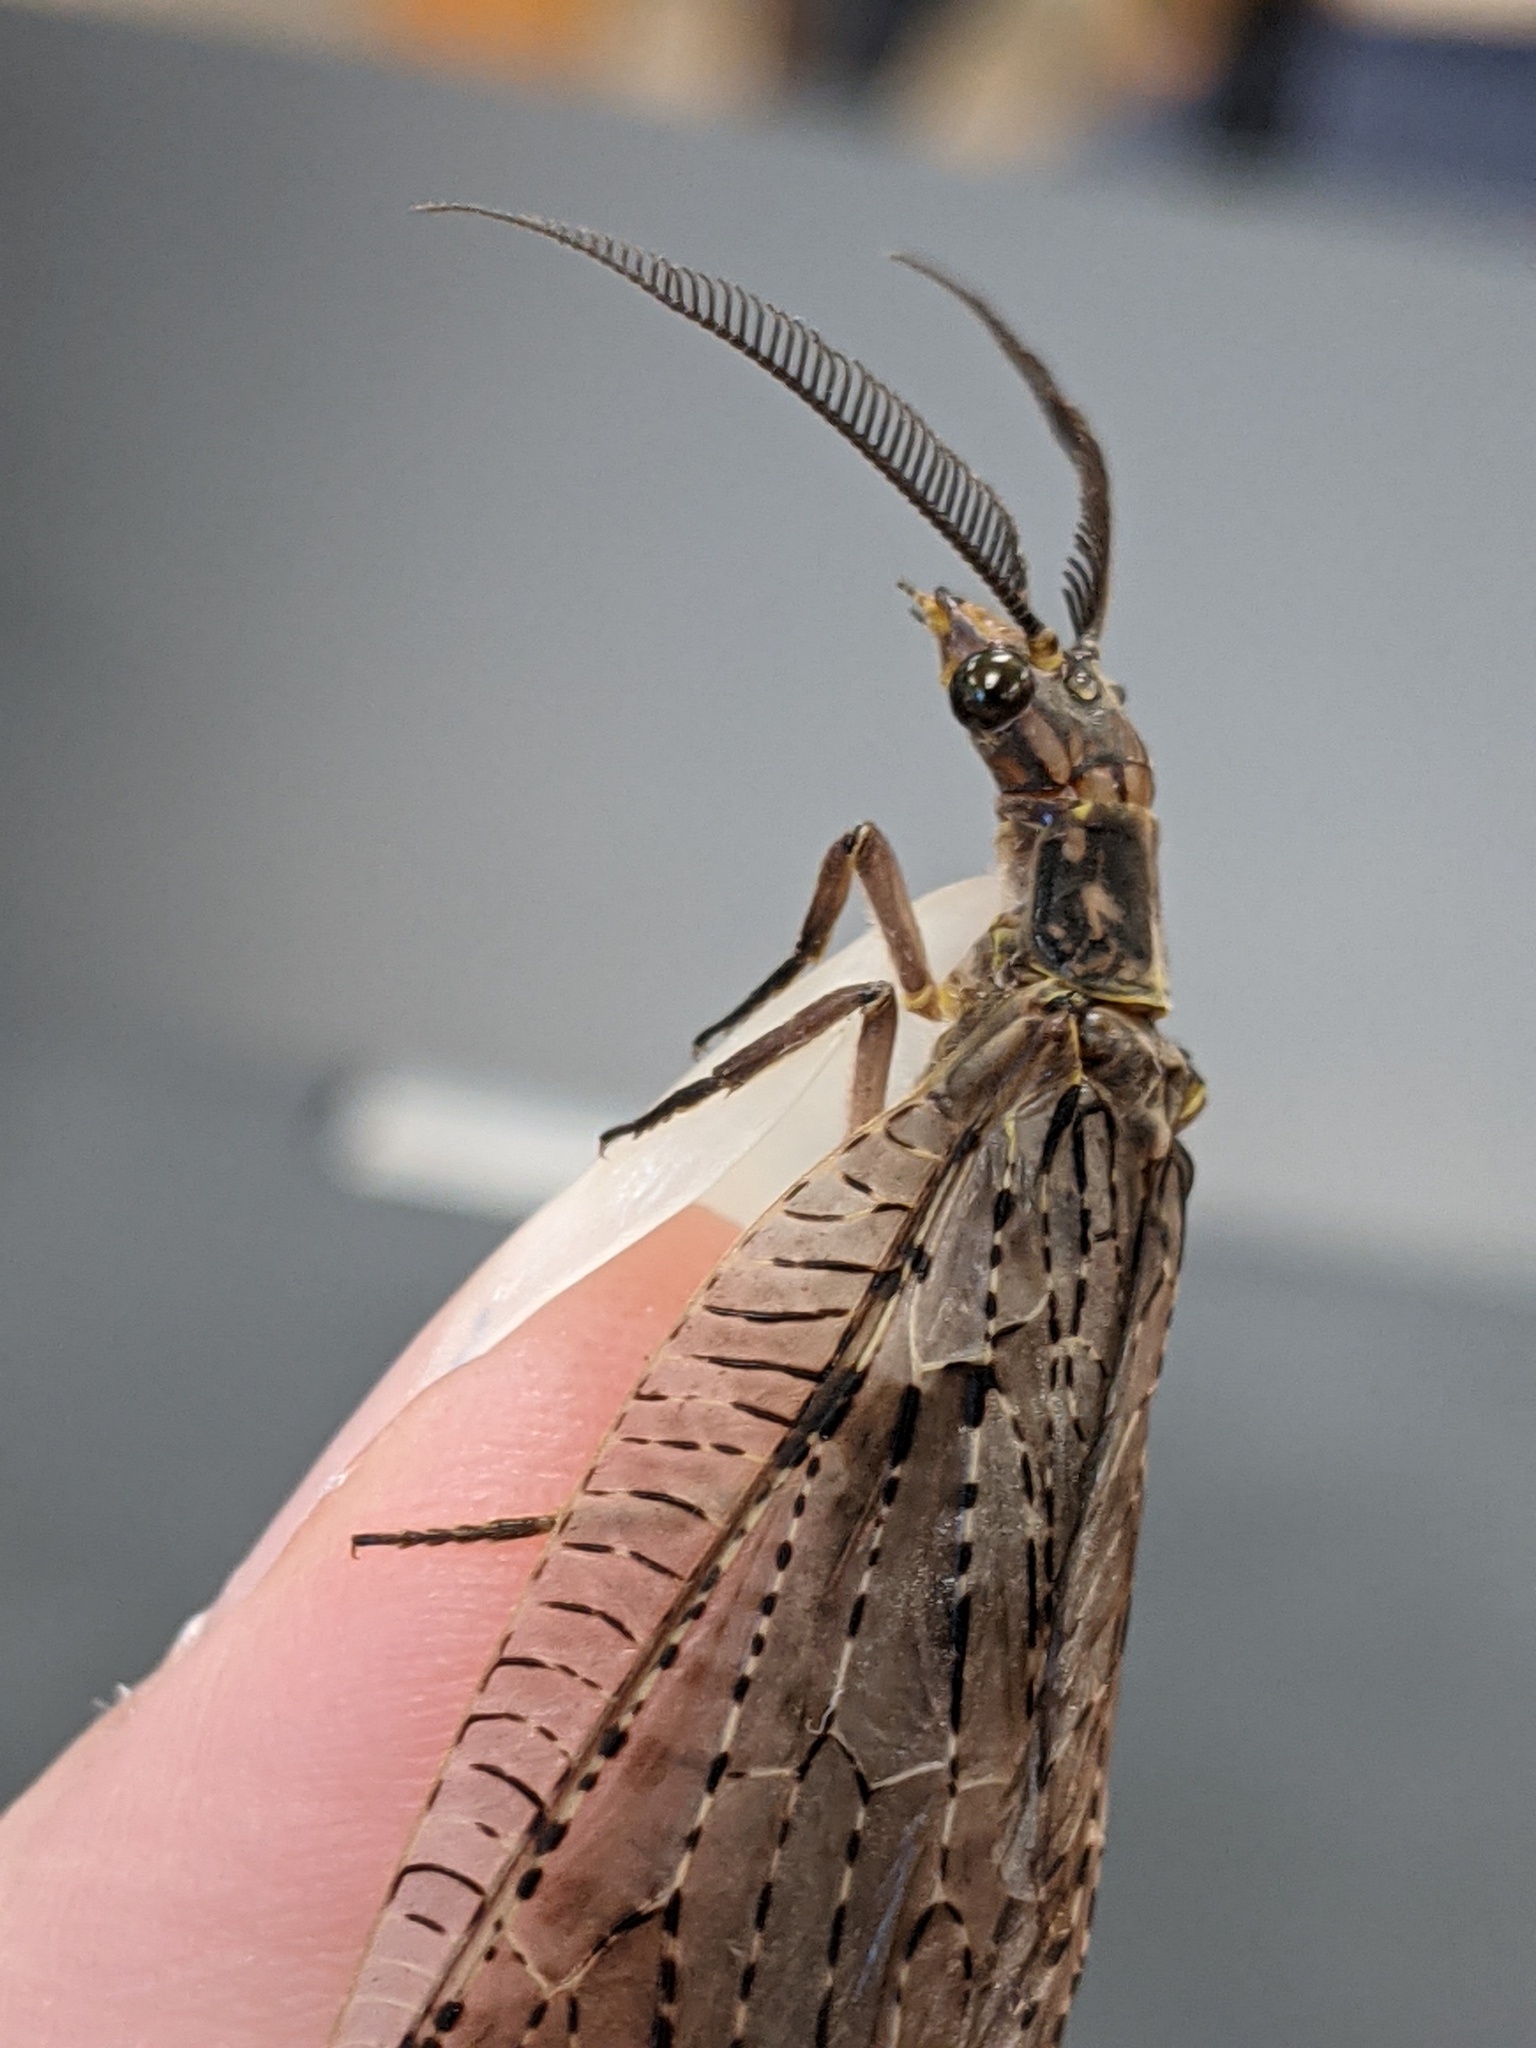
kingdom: Animalia
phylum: Arthropoda
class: Insecta
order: Megaloptera
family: Corydalidae
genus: Chauliodes
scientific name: Chauliodes pectinicornis
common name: Summer fishfly
